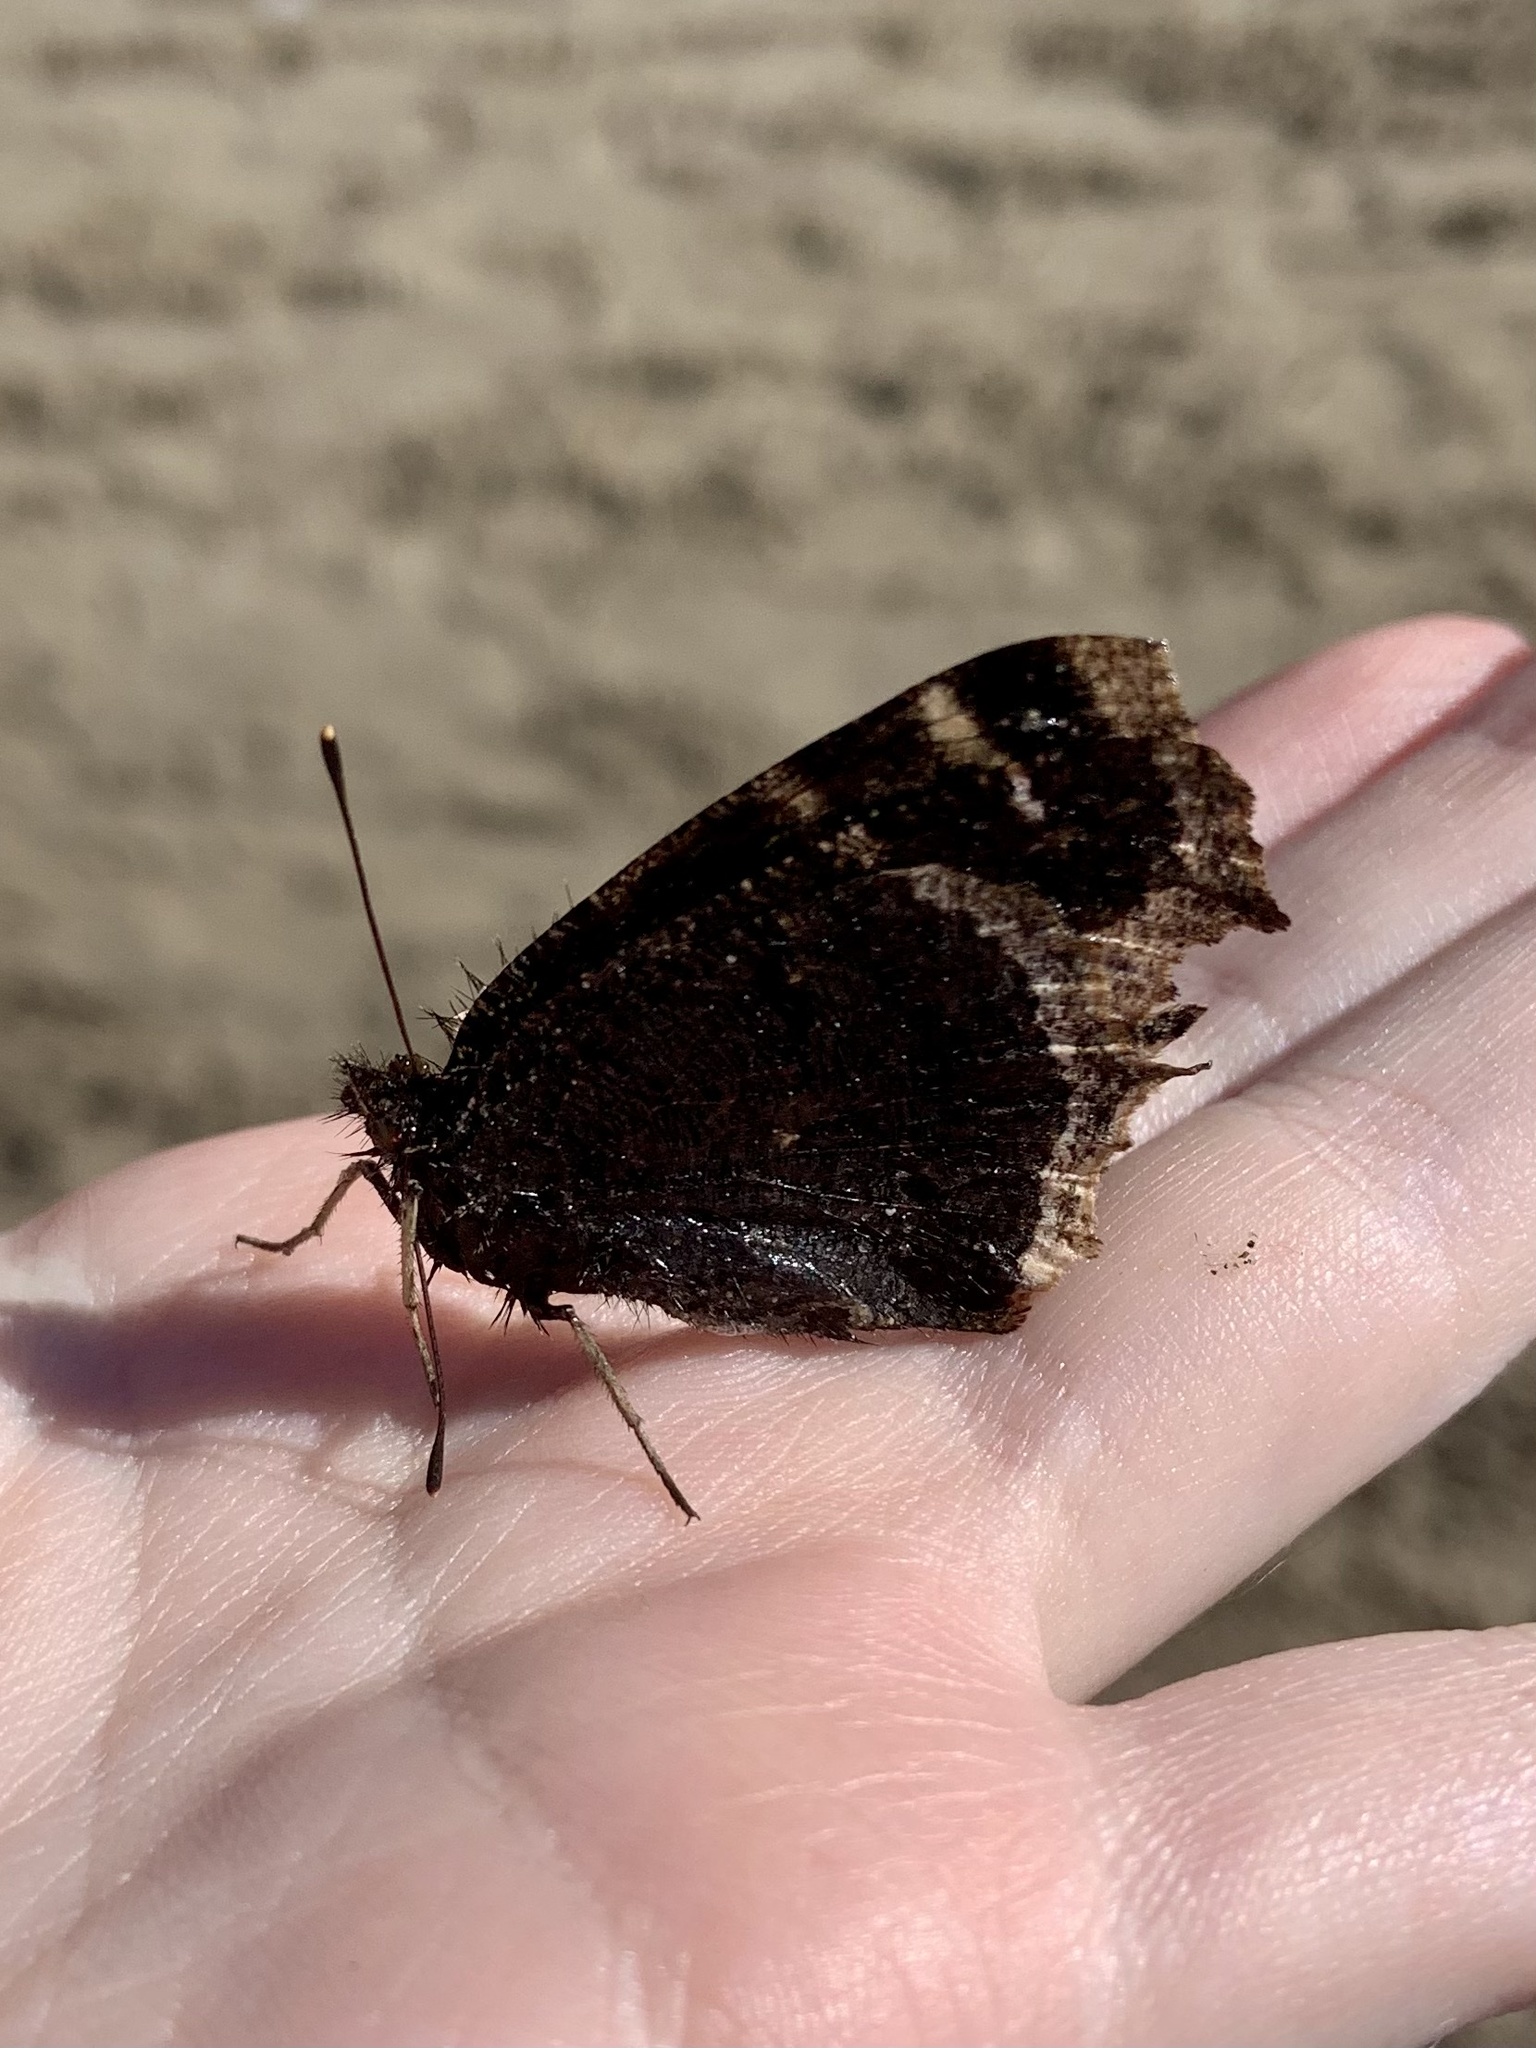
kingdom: Animalia
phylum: Arthropoda
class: Insecta
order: Lepidoptera
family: Nymphalidae
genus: Nymphalis
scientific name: Nymphalis antiopa
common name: Camberwell beauty
